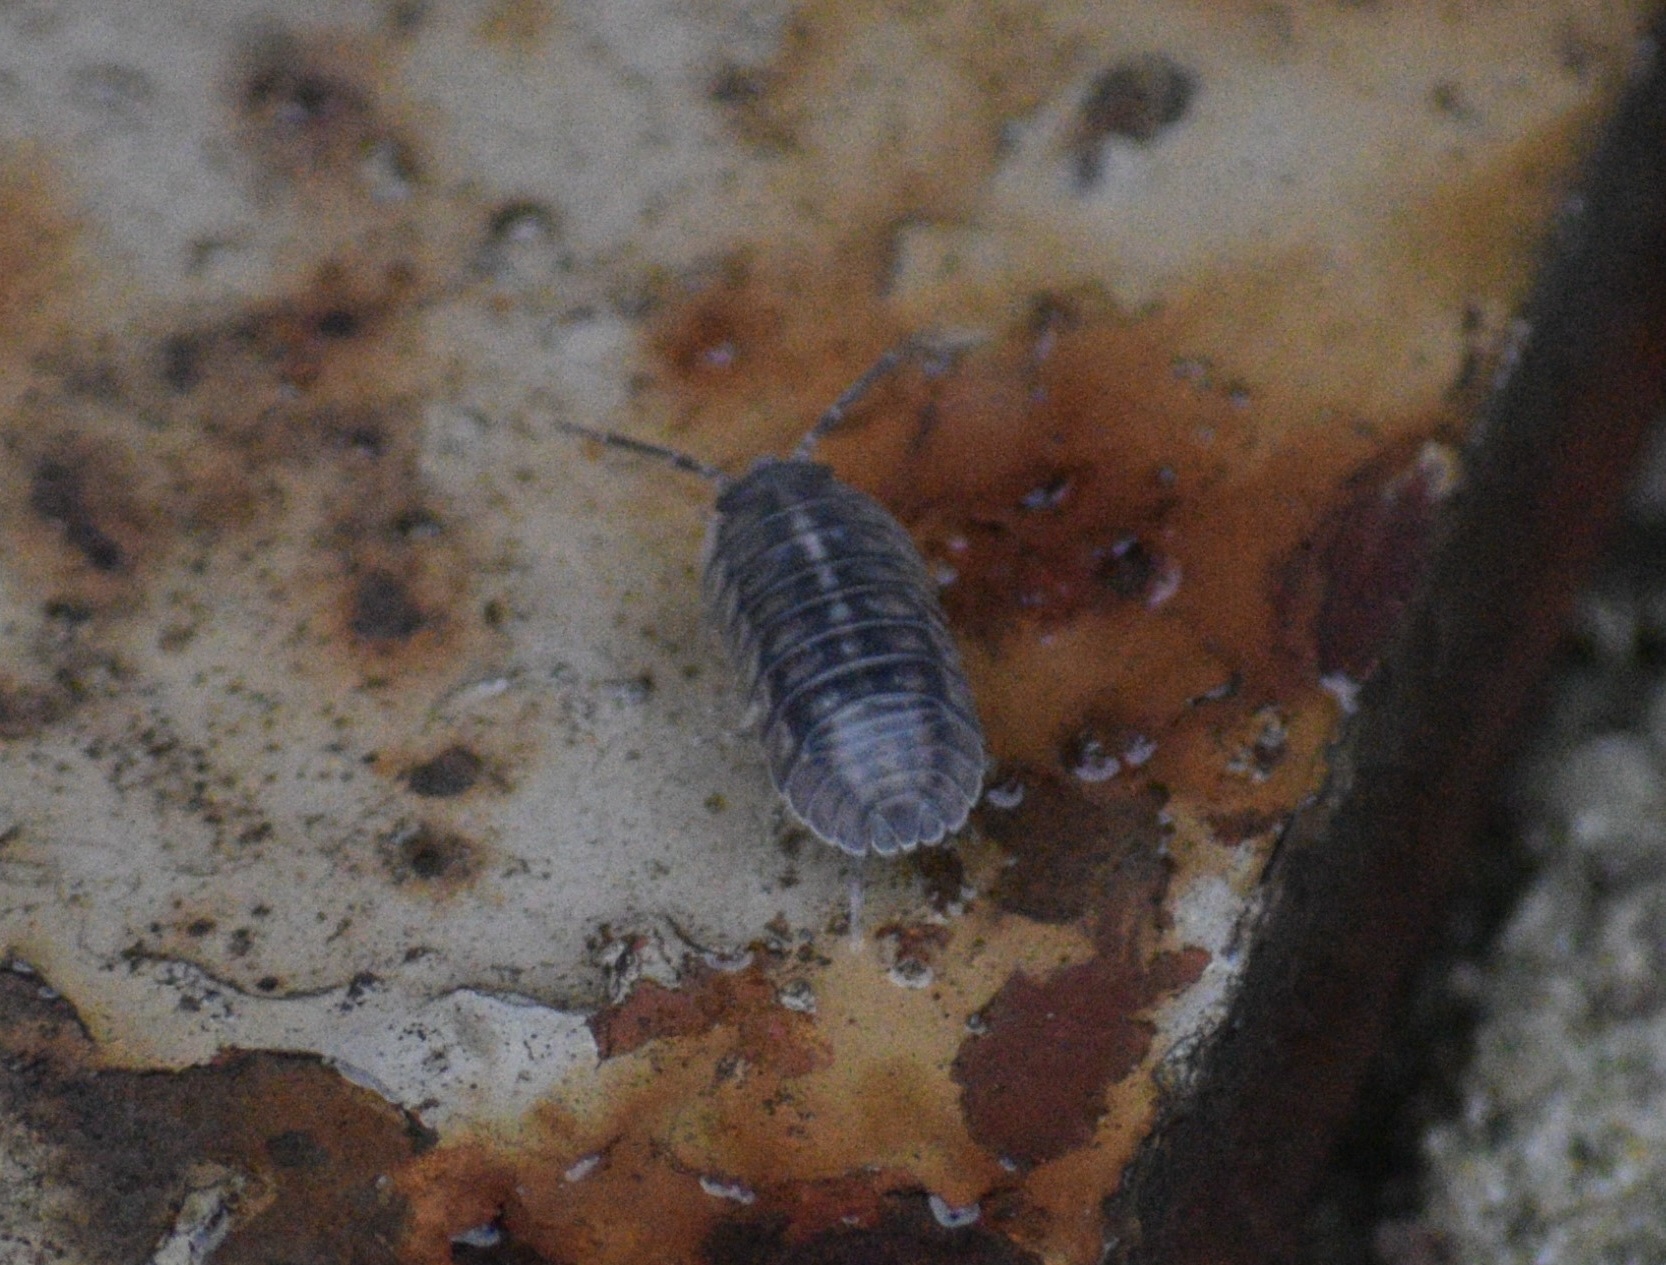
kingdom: Animalia
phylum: Arthropoda
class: Malacostraca
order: Isopoda
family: Armadillidiidae
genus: Armadillidium
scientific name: Armadillidium nasatum
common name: Isopod
